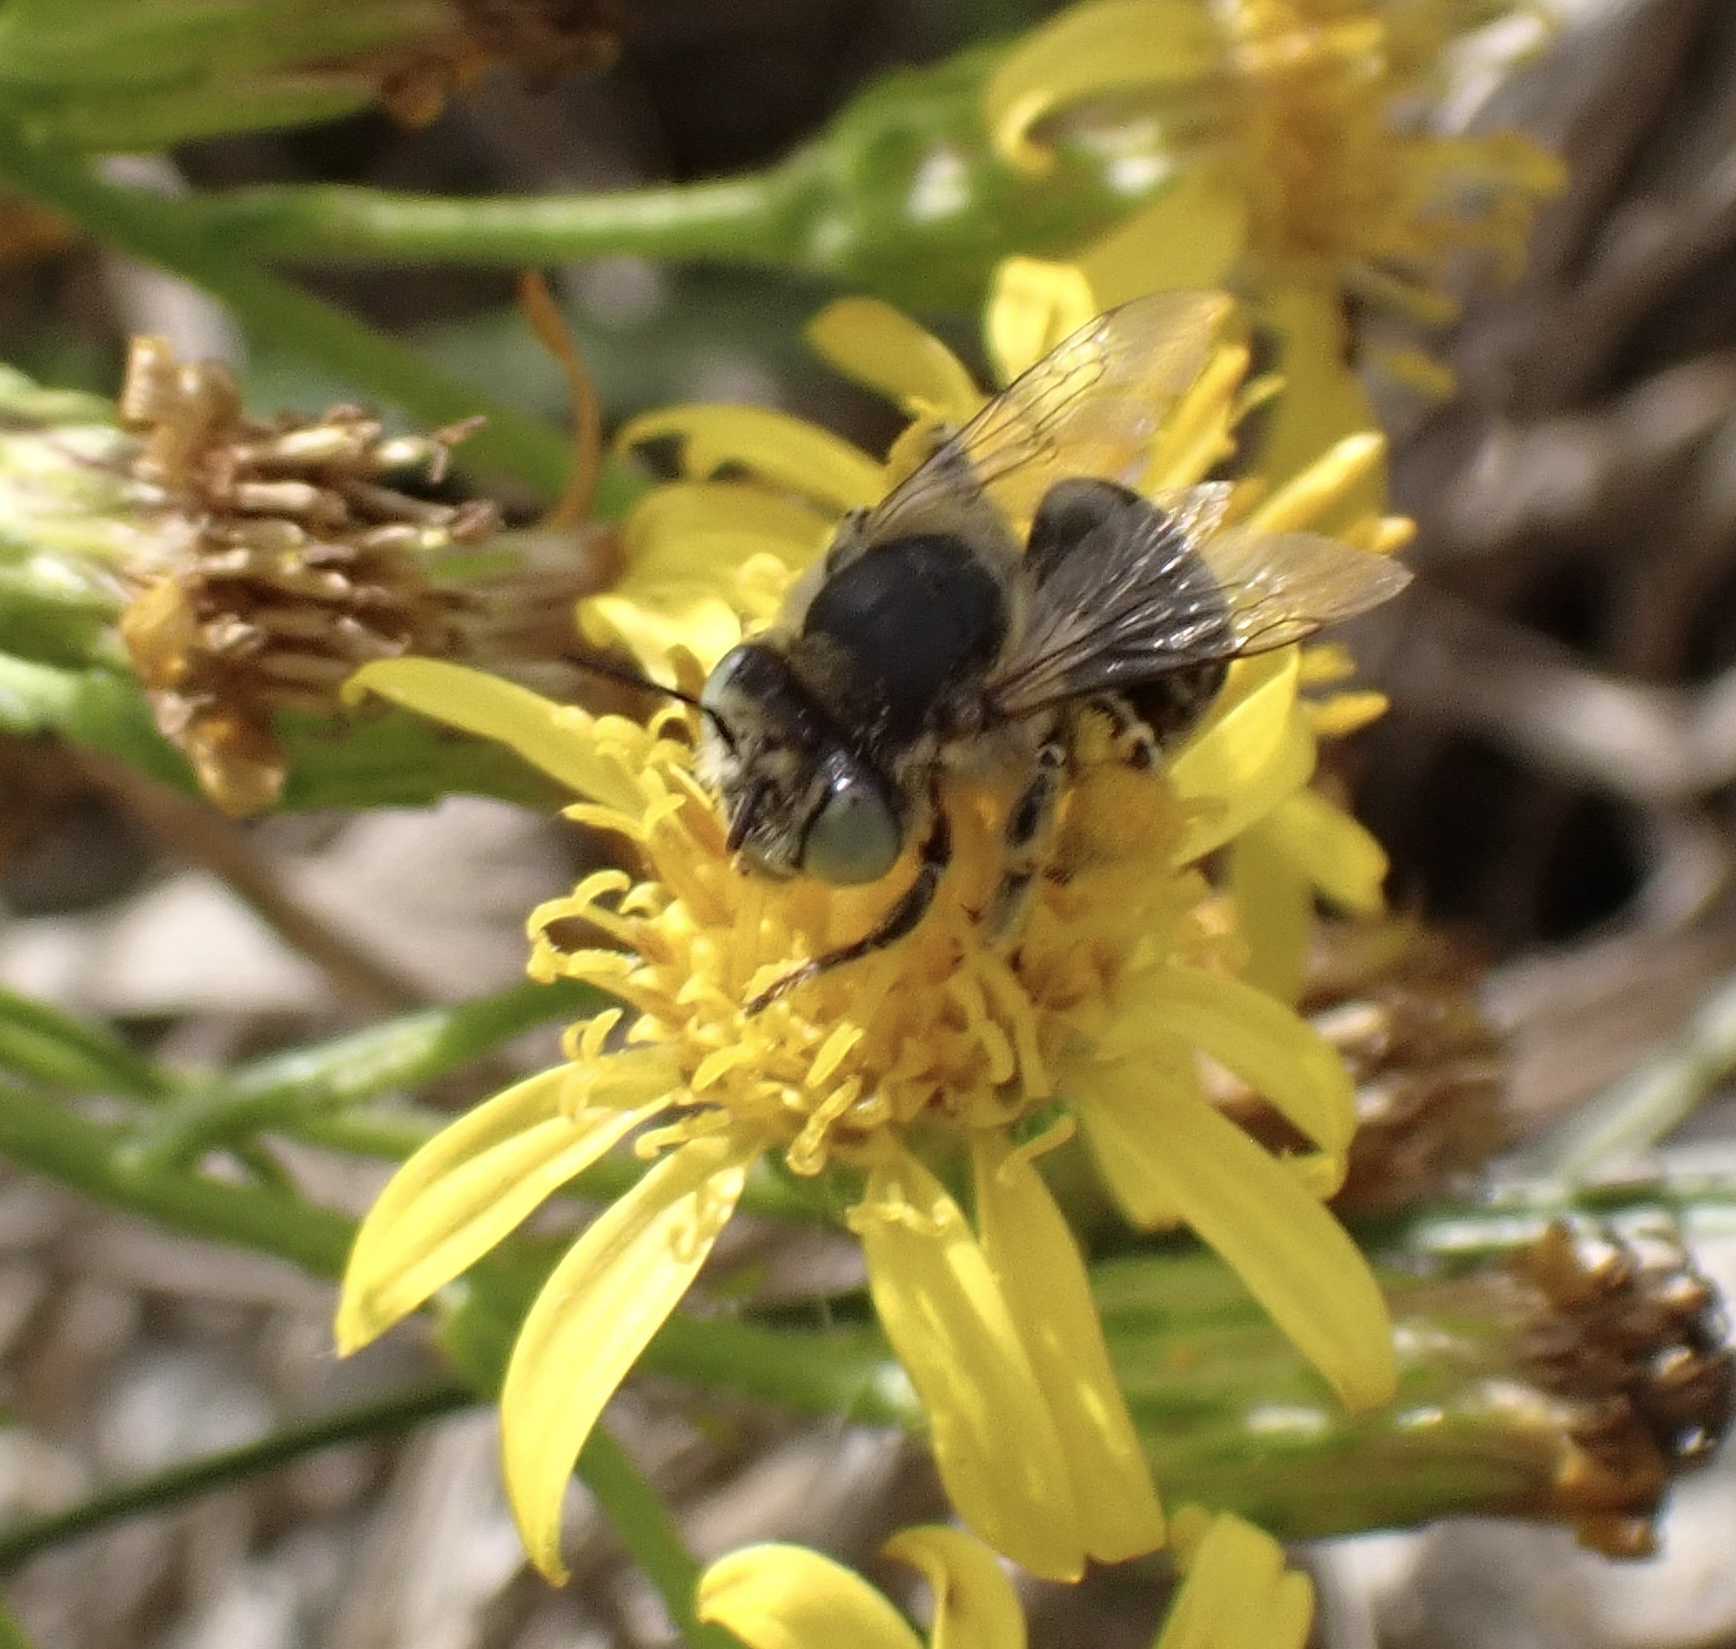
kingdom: Animalia
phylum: Arthropoda
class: Insecta
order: Hymenoptera
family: Apidae
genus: Anthophora
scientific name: Anthophora bimaculata
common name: Green-eyed flower bee
